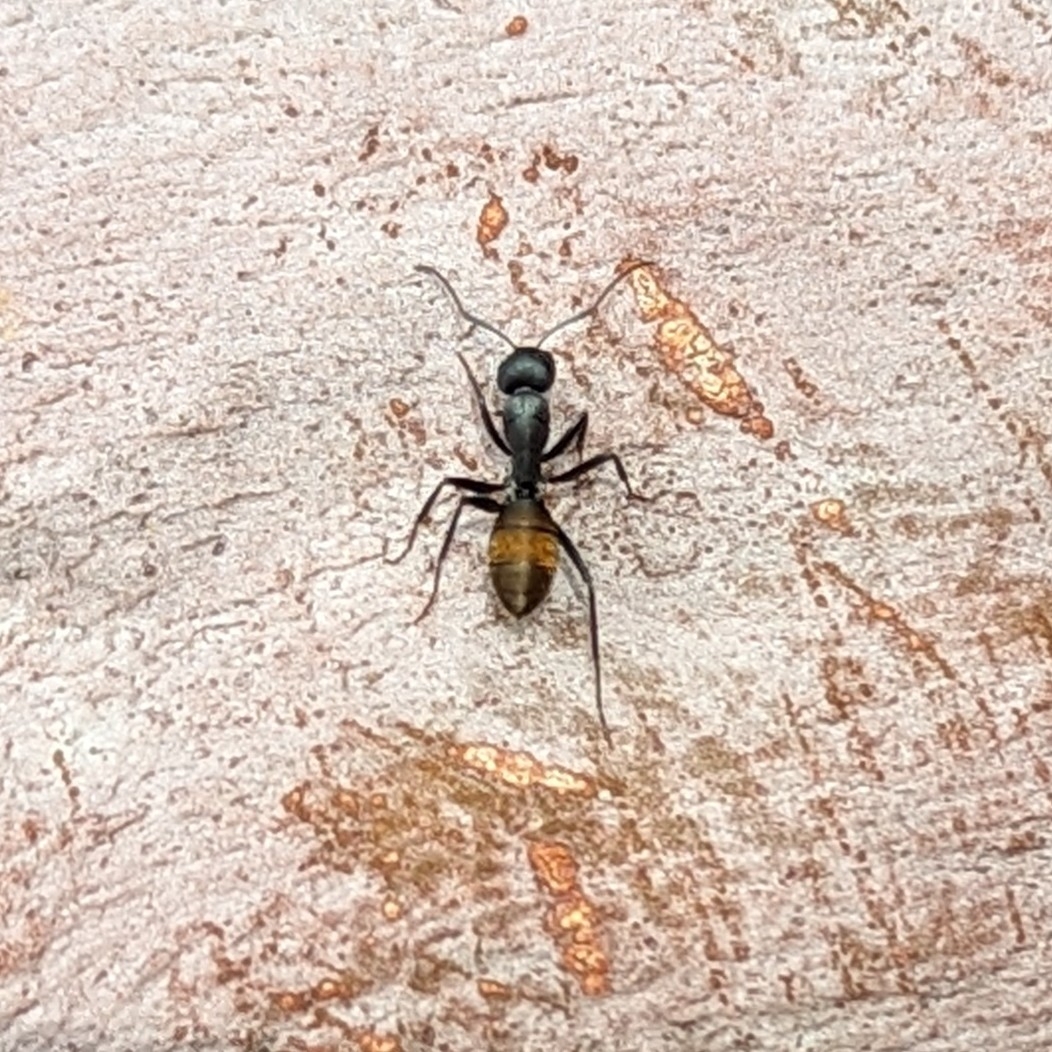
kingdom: Animalia
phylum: Arthropoda
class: Insecta
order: Hymenoptera
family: Formicidae
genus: Camponotus
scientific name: Camponotus aeneopilosus
